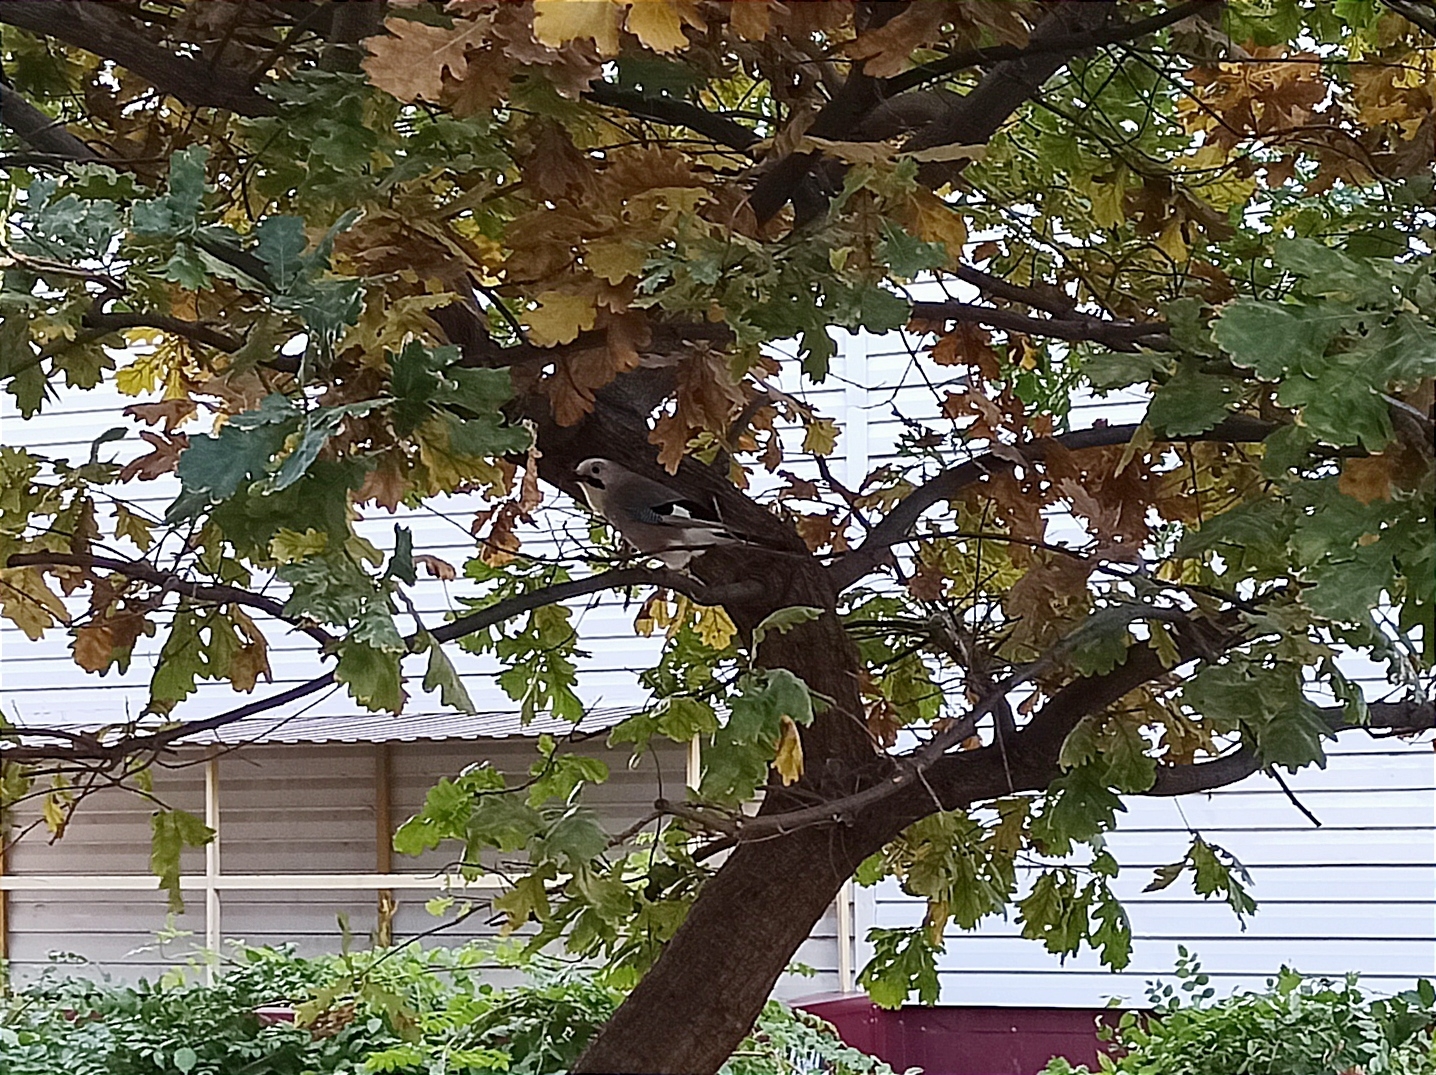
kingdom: Animalia
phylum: Chordata
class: Aves
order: Passeriformes
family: Corvidae
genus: Garrulus
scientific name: Garrulus glandarius
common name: Eurasian jay
